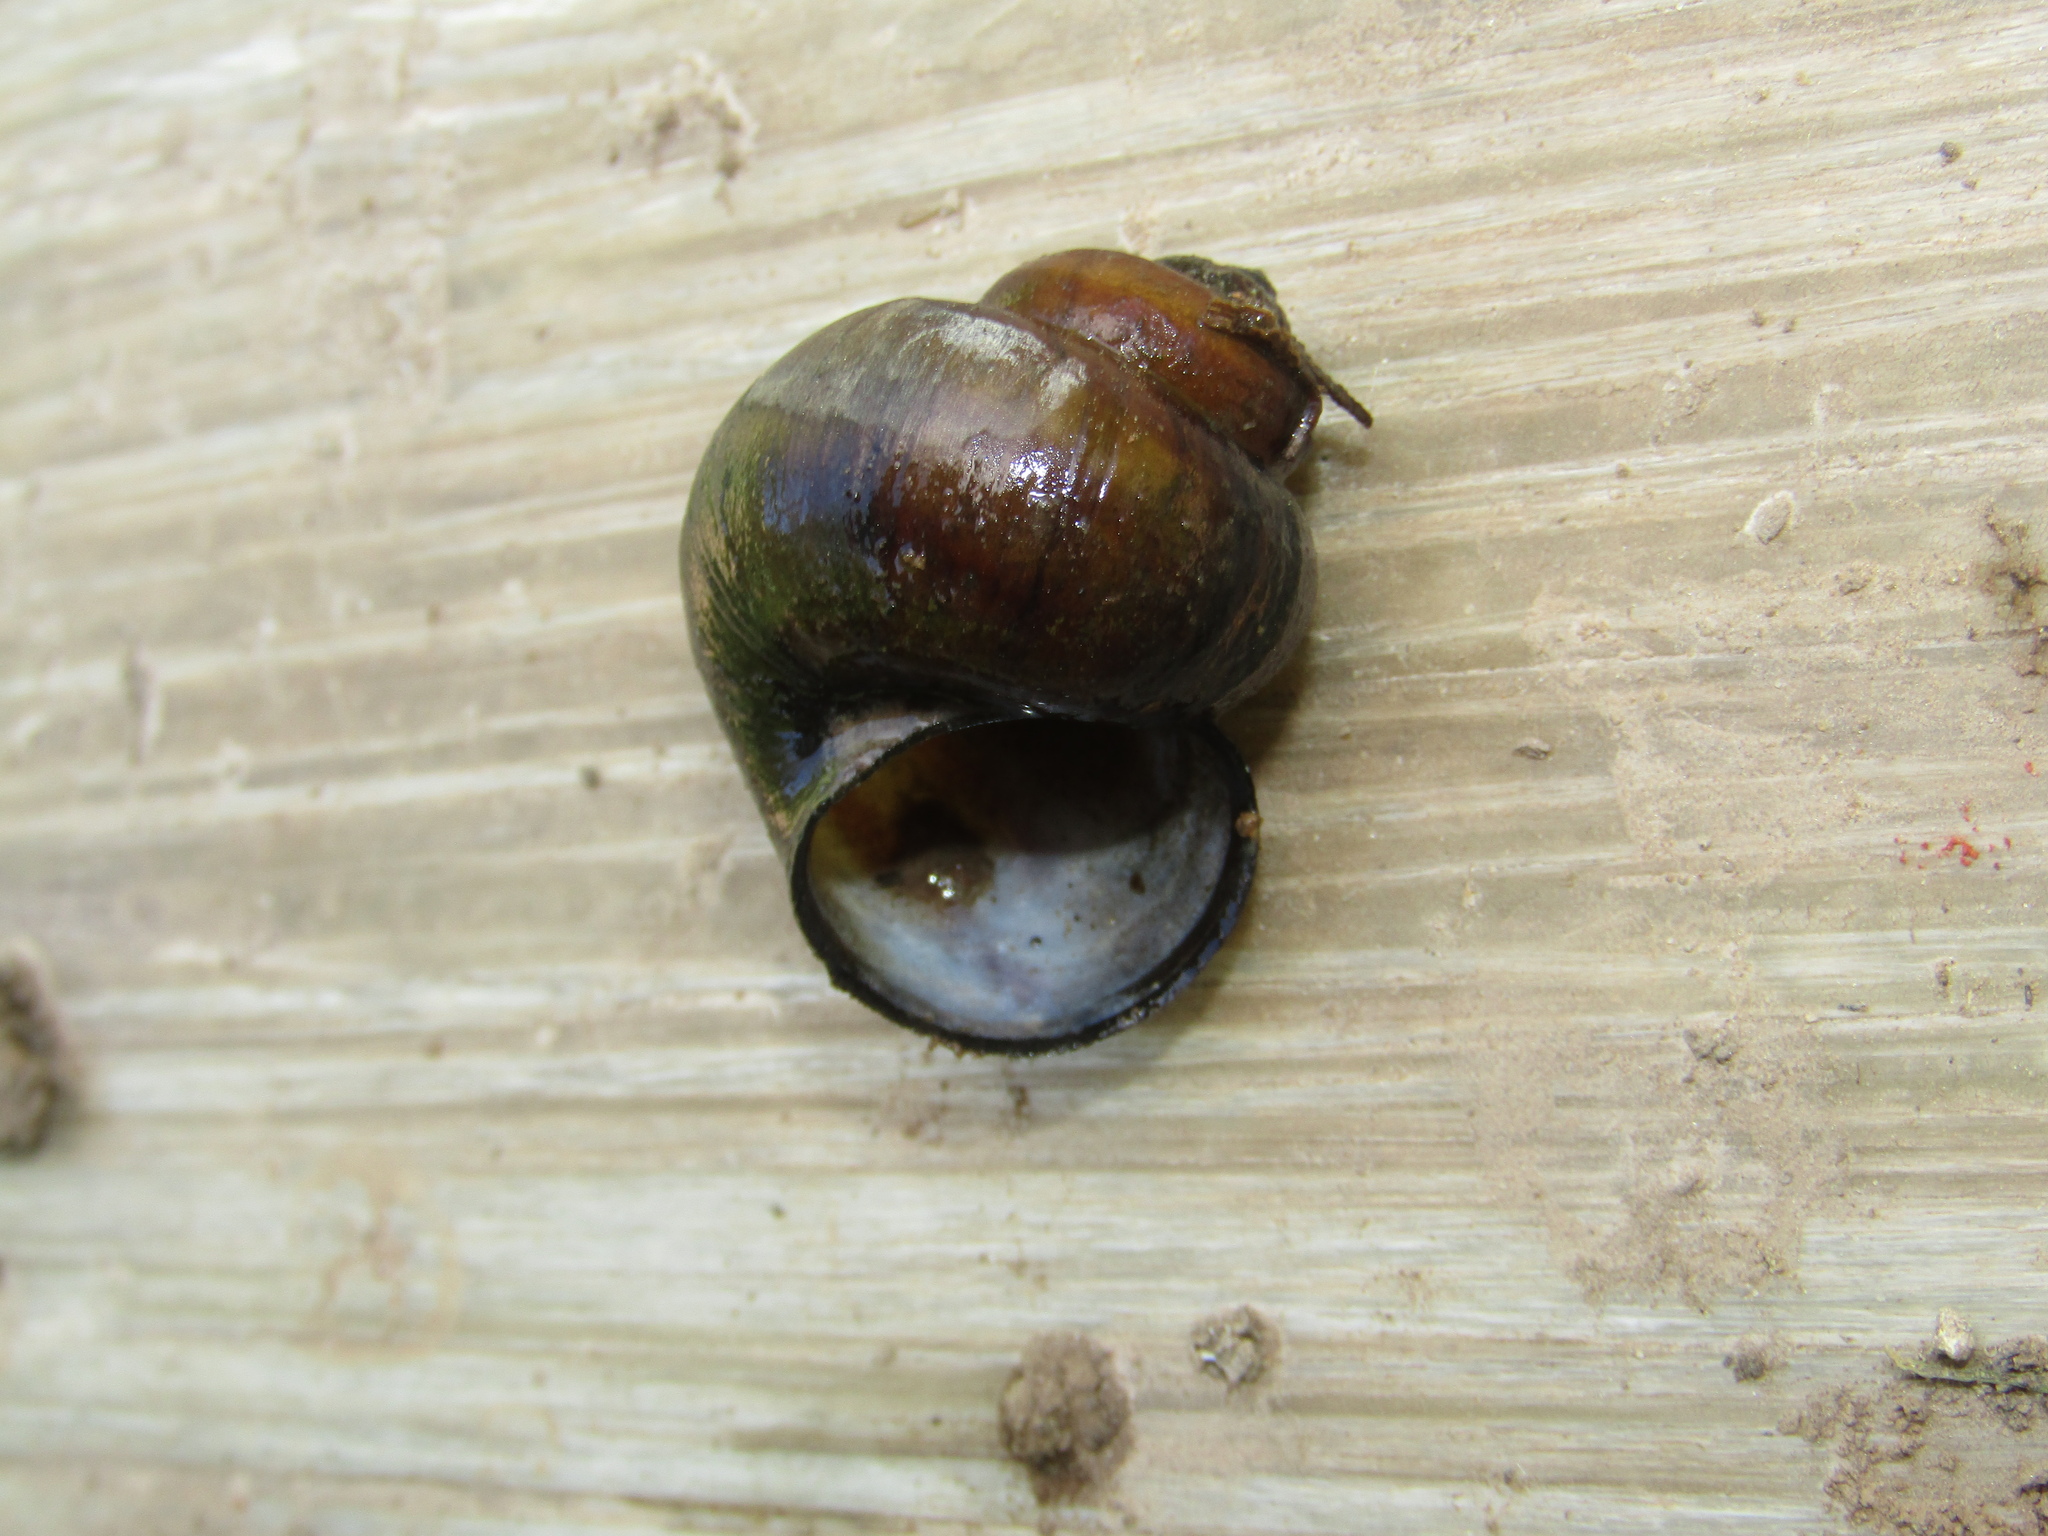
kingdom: Animalia
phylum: Mollusca
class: Gastropoda
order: Architaenioglossa
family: Viviparidae
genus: Viviparus
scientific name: Viviparus contectus
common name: Lister's river snail
